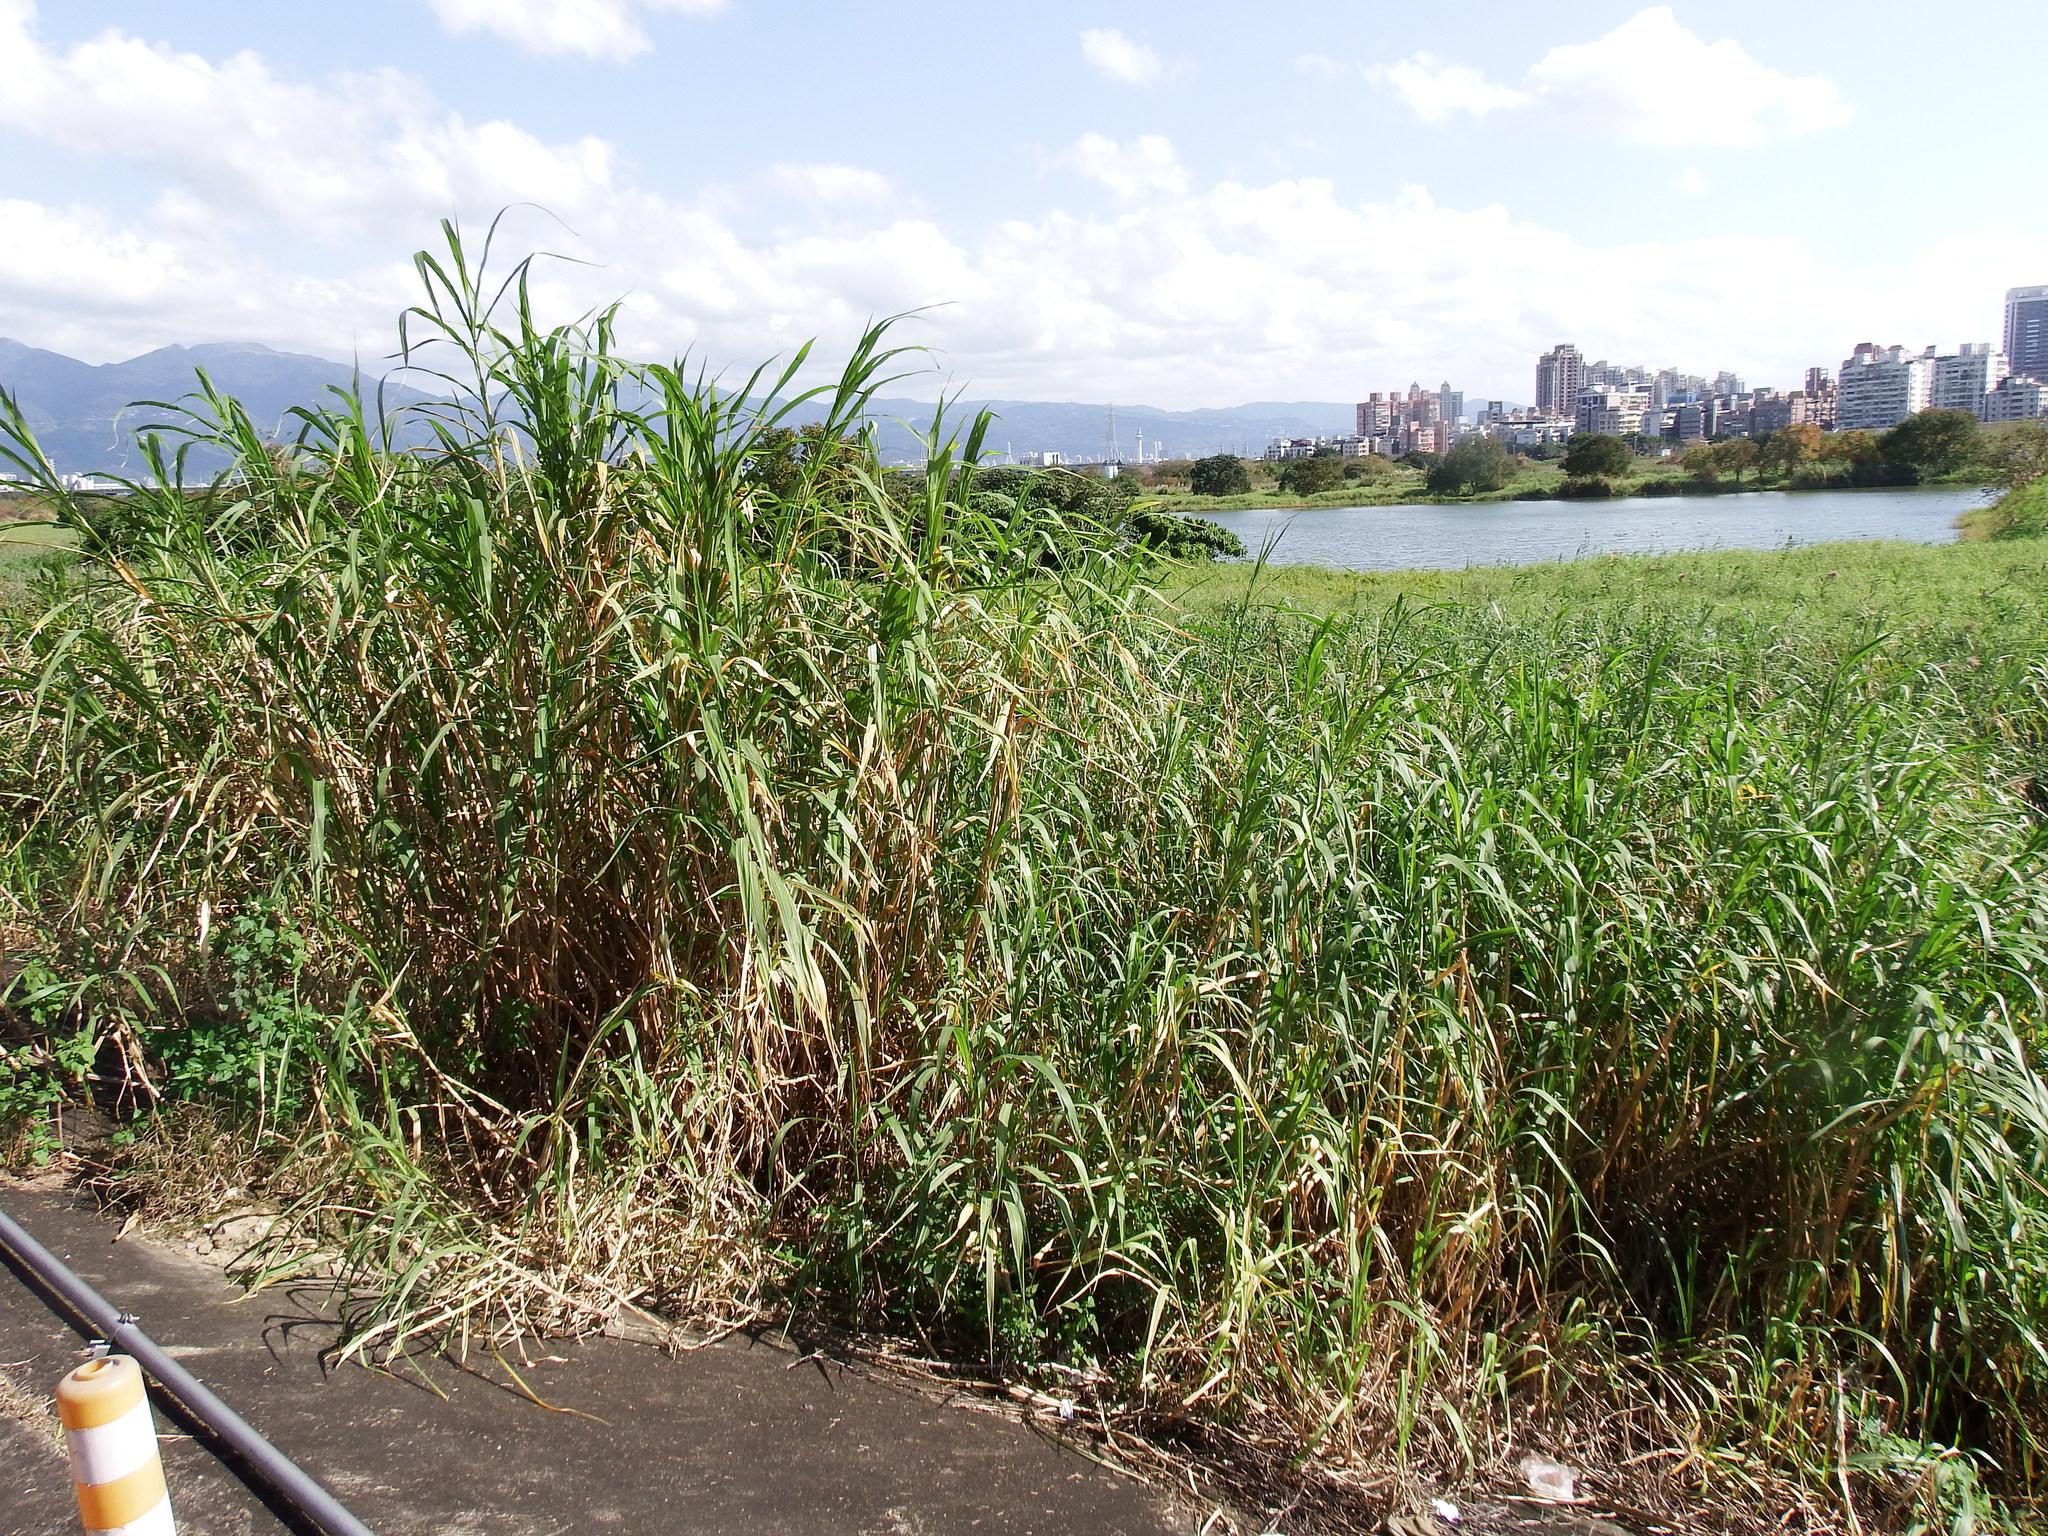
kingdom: Plantae
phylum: Tracheophyta
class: Liliopsida
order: Poales
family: Poaceae
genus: Cenchrus
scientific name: Cenchrus purpureus
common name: Elephant grass
